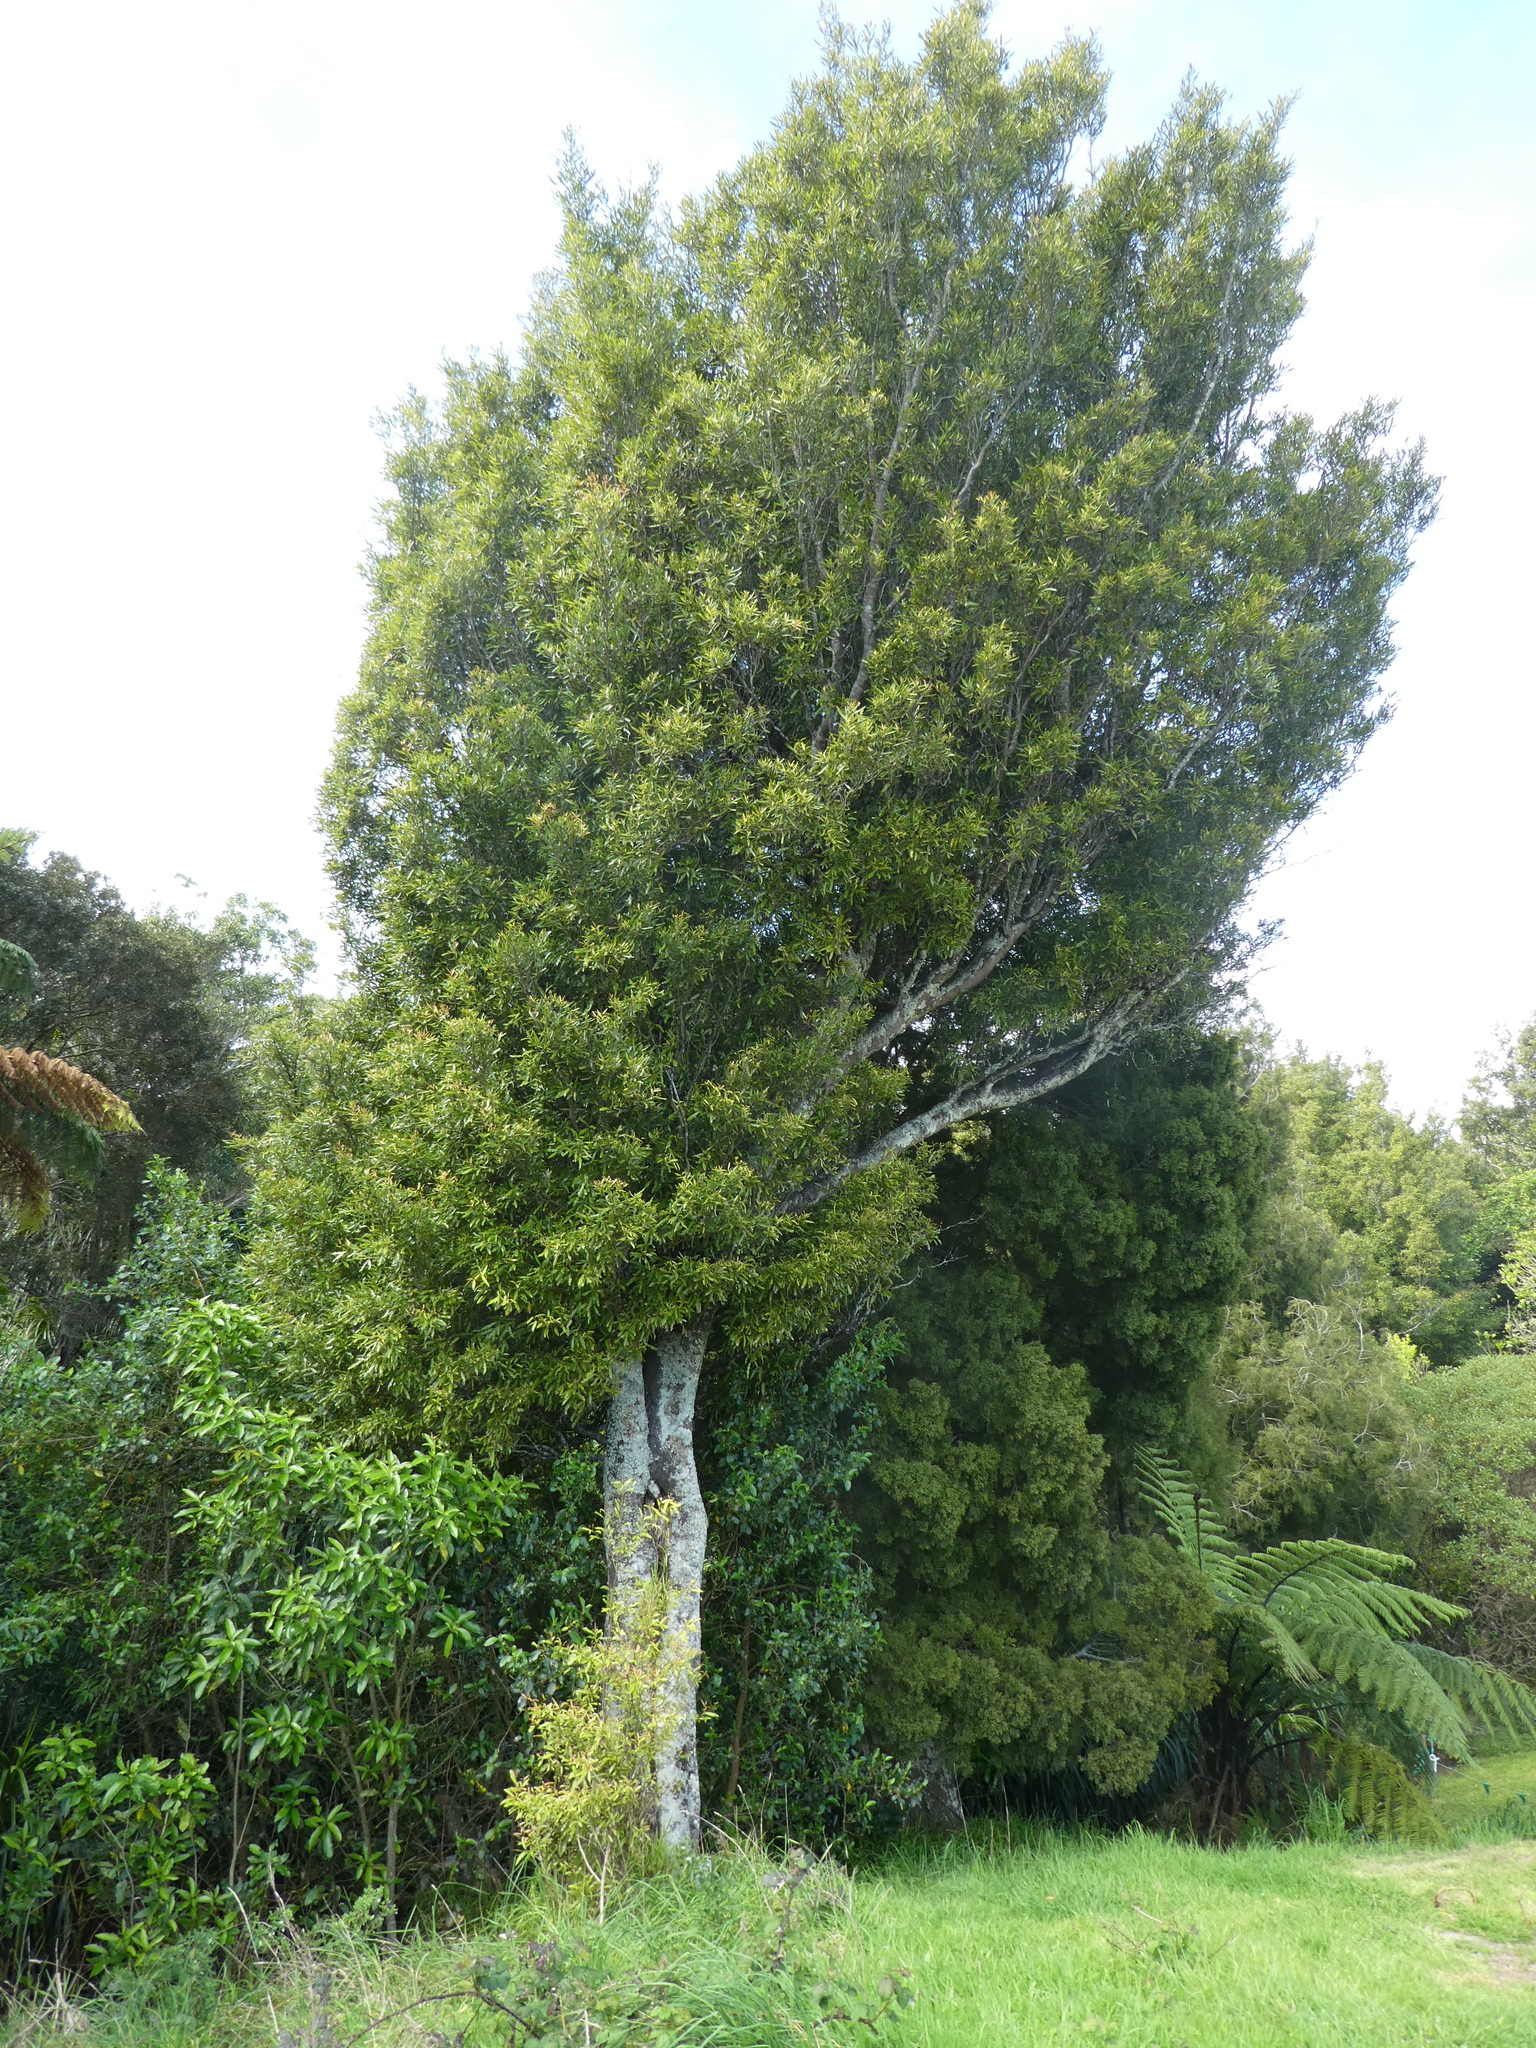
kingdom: Plantae
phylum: Tracheophyta
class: Magnoliopsida
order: Laurales
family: Lauraceae
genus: Beilschmiedia
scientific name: Beilschmiedia tawa
